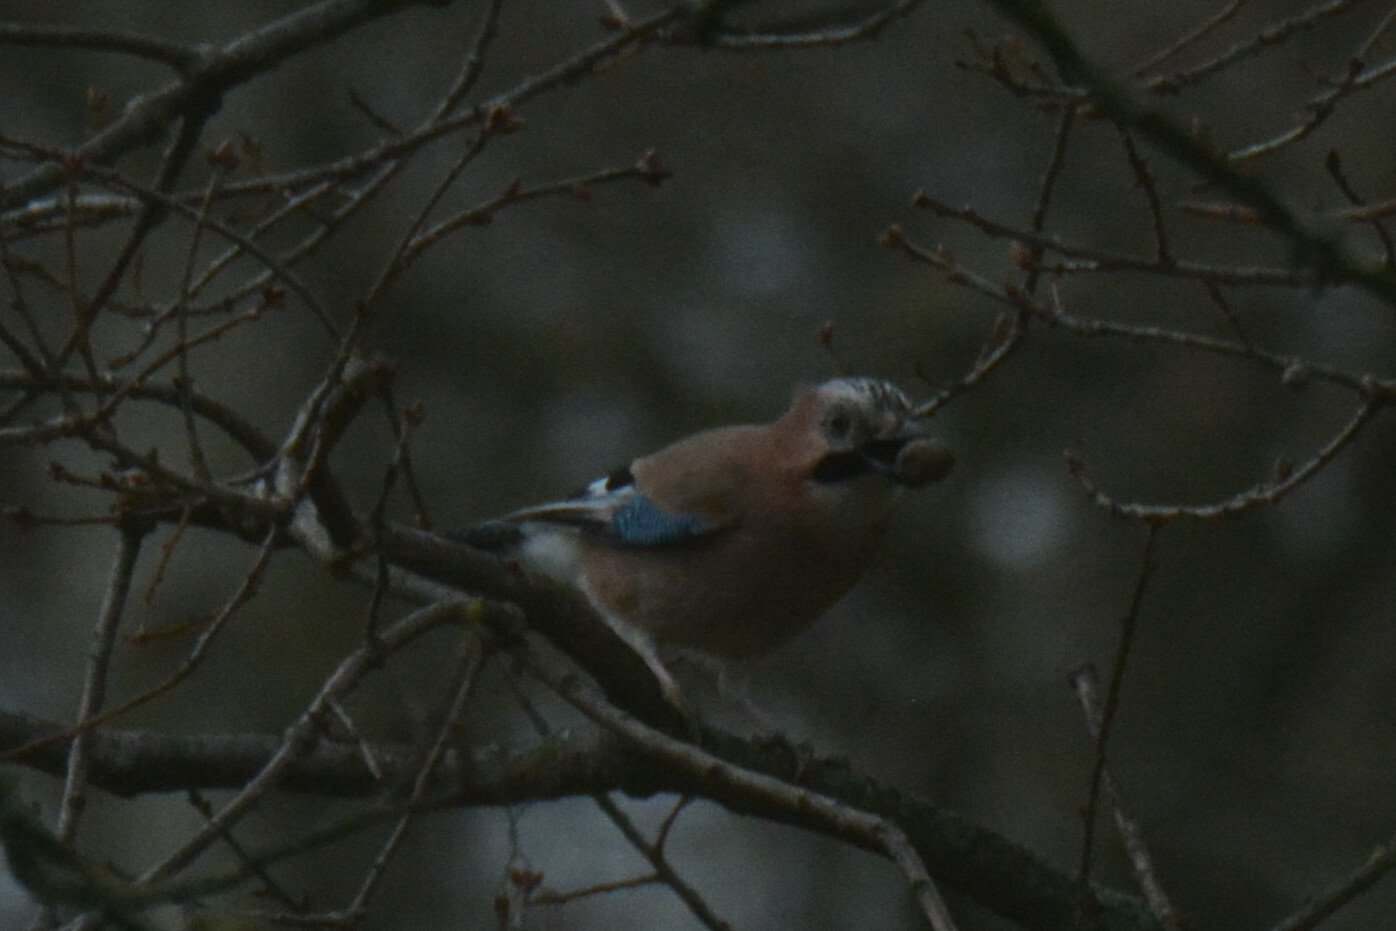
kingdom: Animalia
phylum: Chordata
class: Aves
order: Passeriformes
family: Corvidae
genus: Garrulus
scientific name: Garrulus glandarius
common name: Eurasian jay
